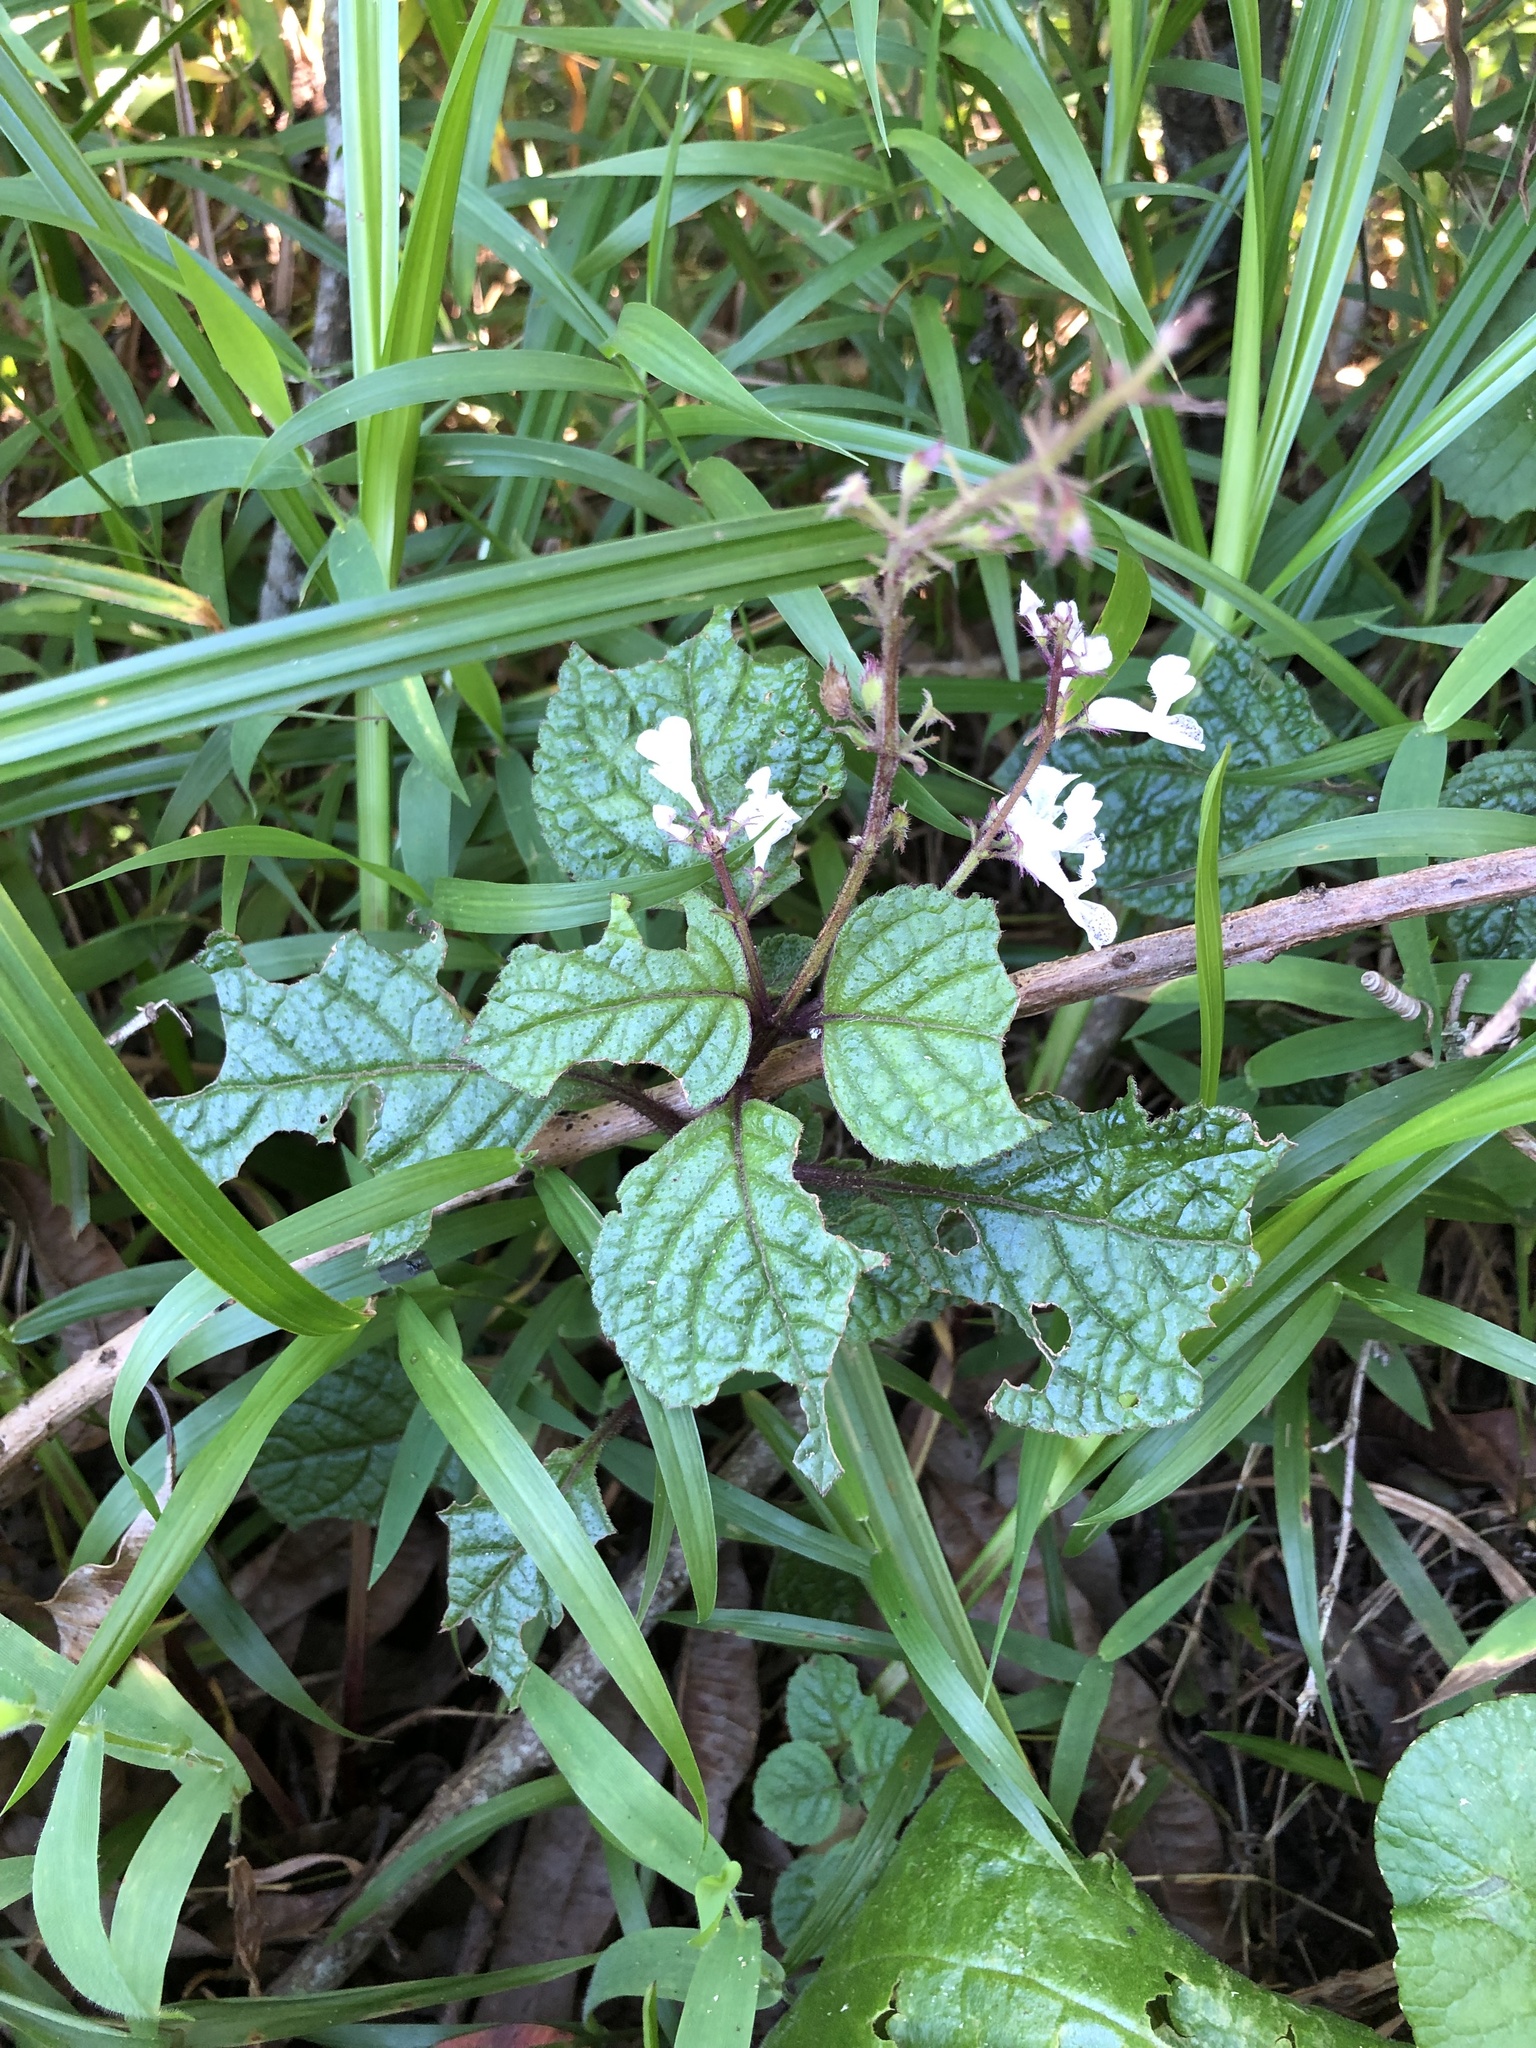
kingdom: Plantae
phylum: Tracheophyta
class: Magnoliopsida
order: Lamiales
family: Lamiaceae
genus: Plectranthus
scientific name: Plectranthus ciliatus
